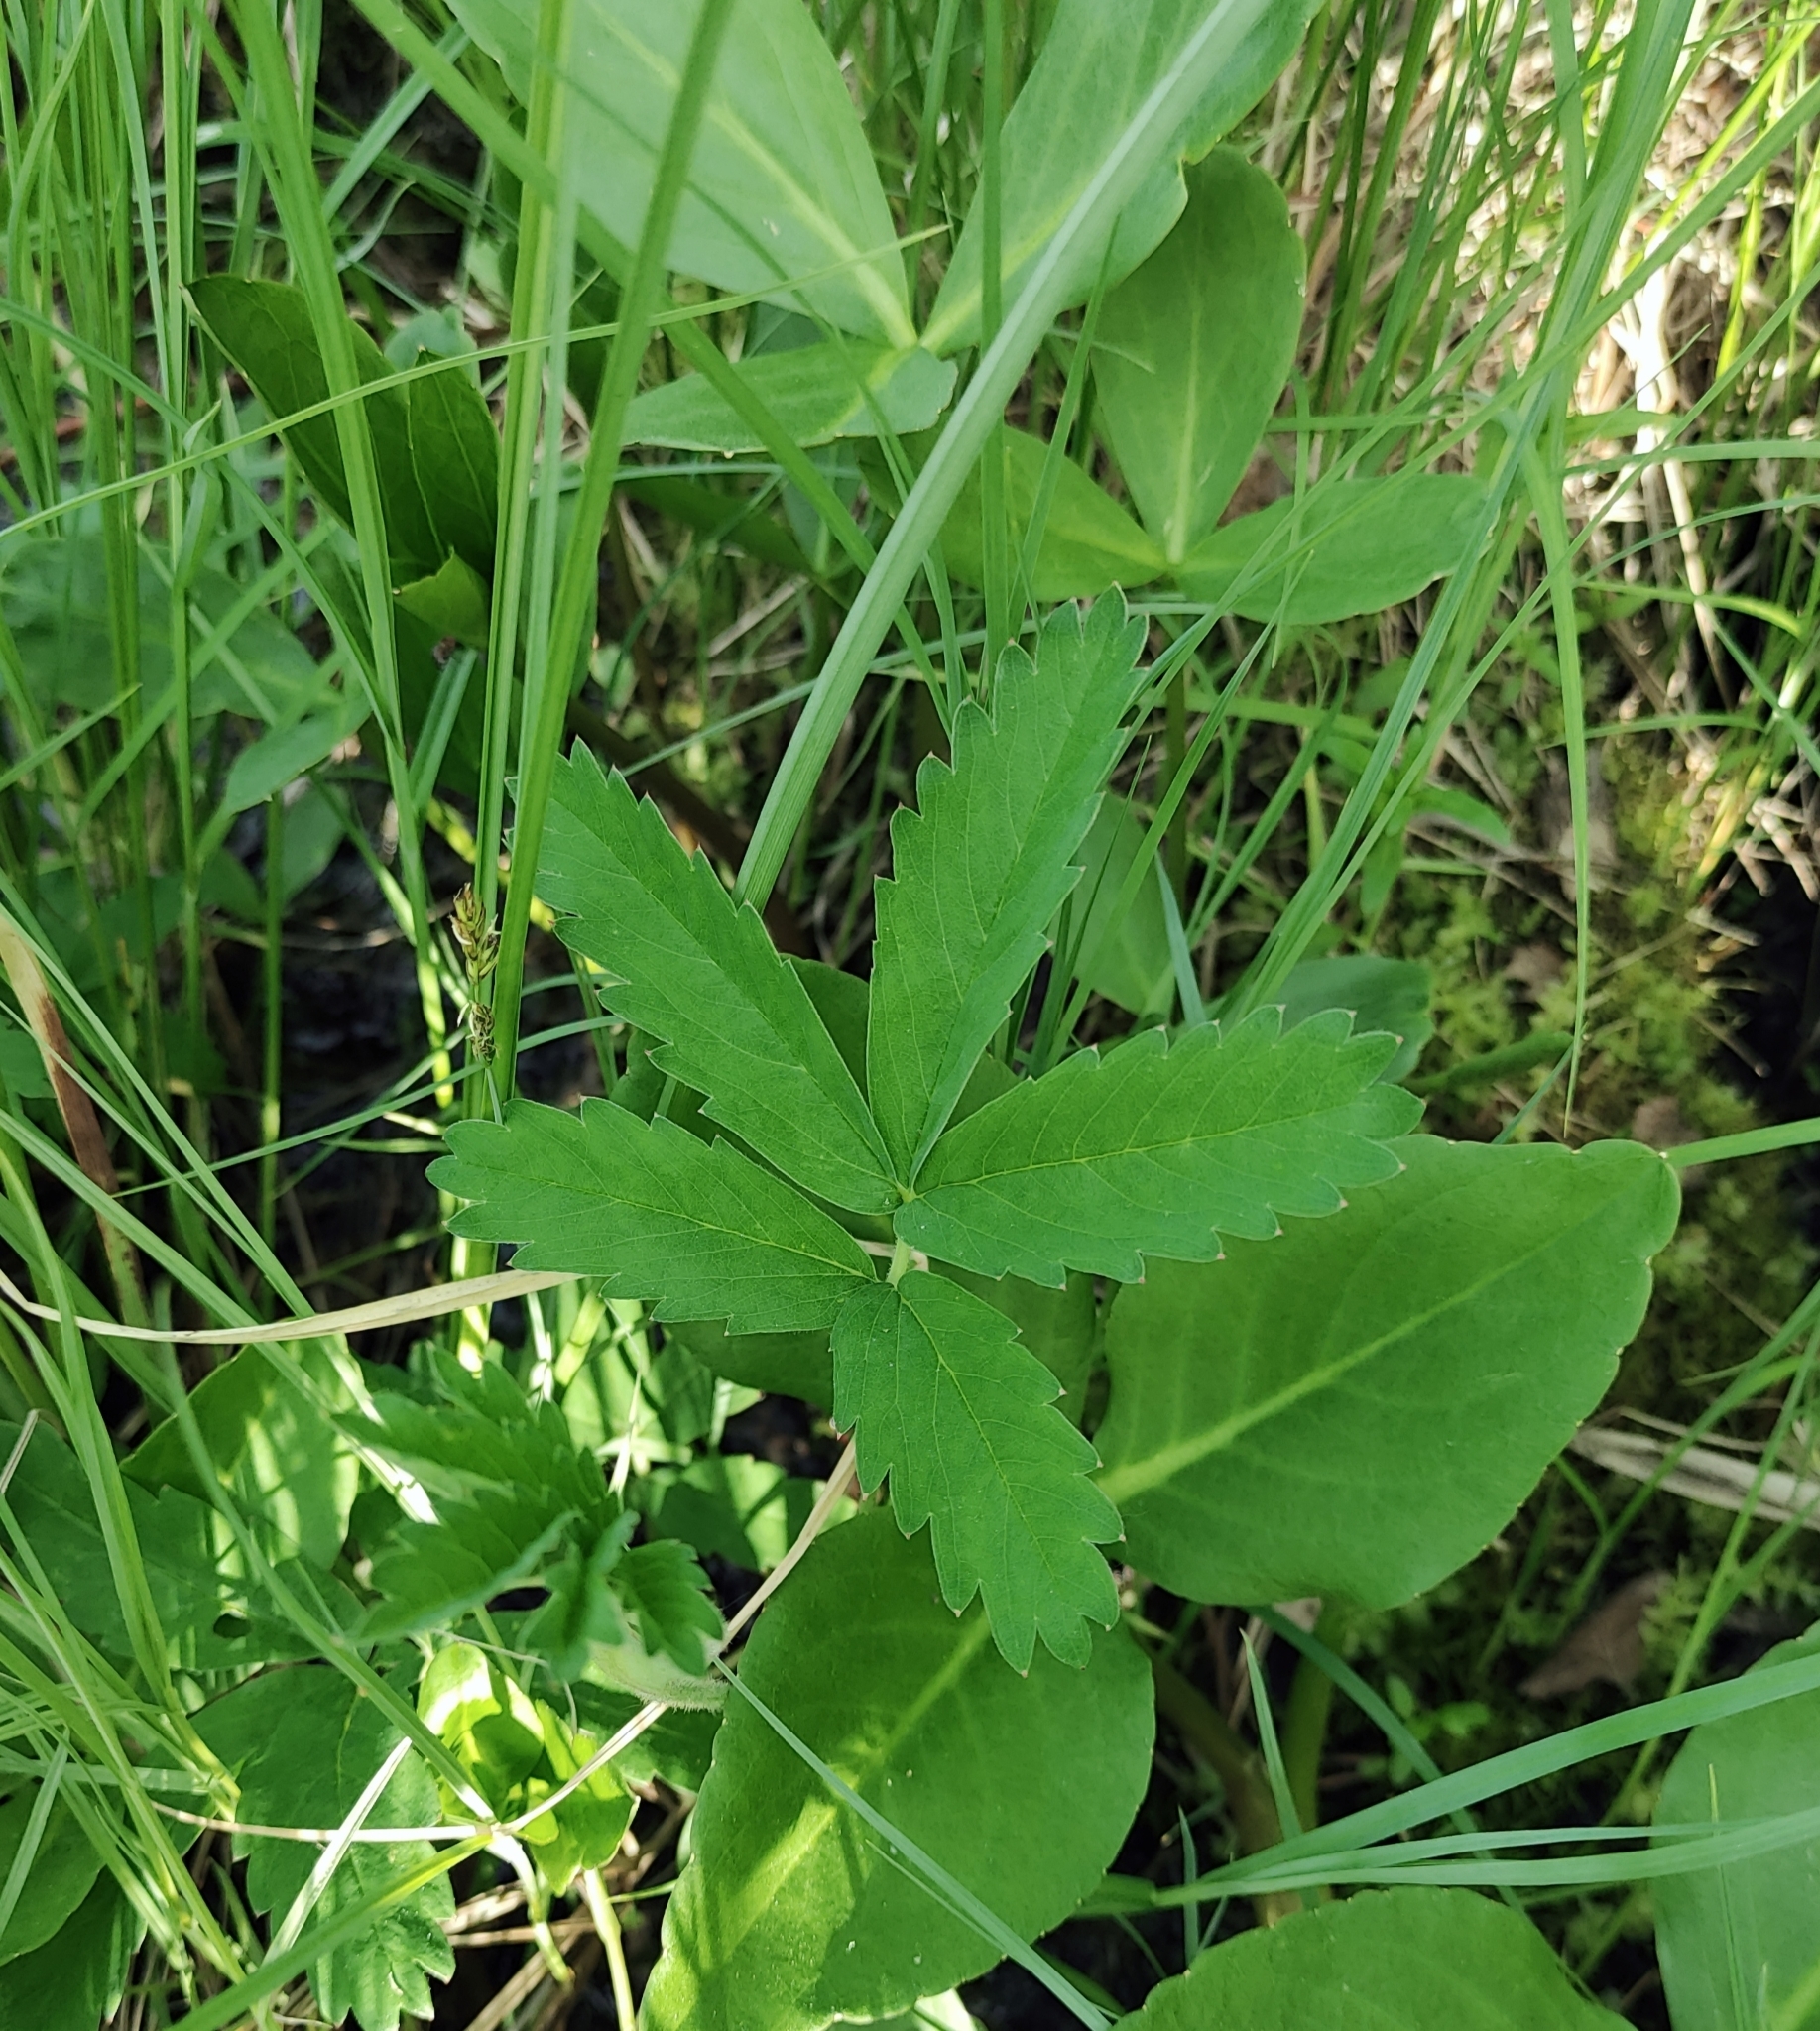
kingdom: Plantae
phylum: Tracheophyta
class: Magnoliopsida
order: Rosales
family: Rosaceae
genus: Comarum
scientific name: Comarum palustre
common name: Marsh cinquefoil
